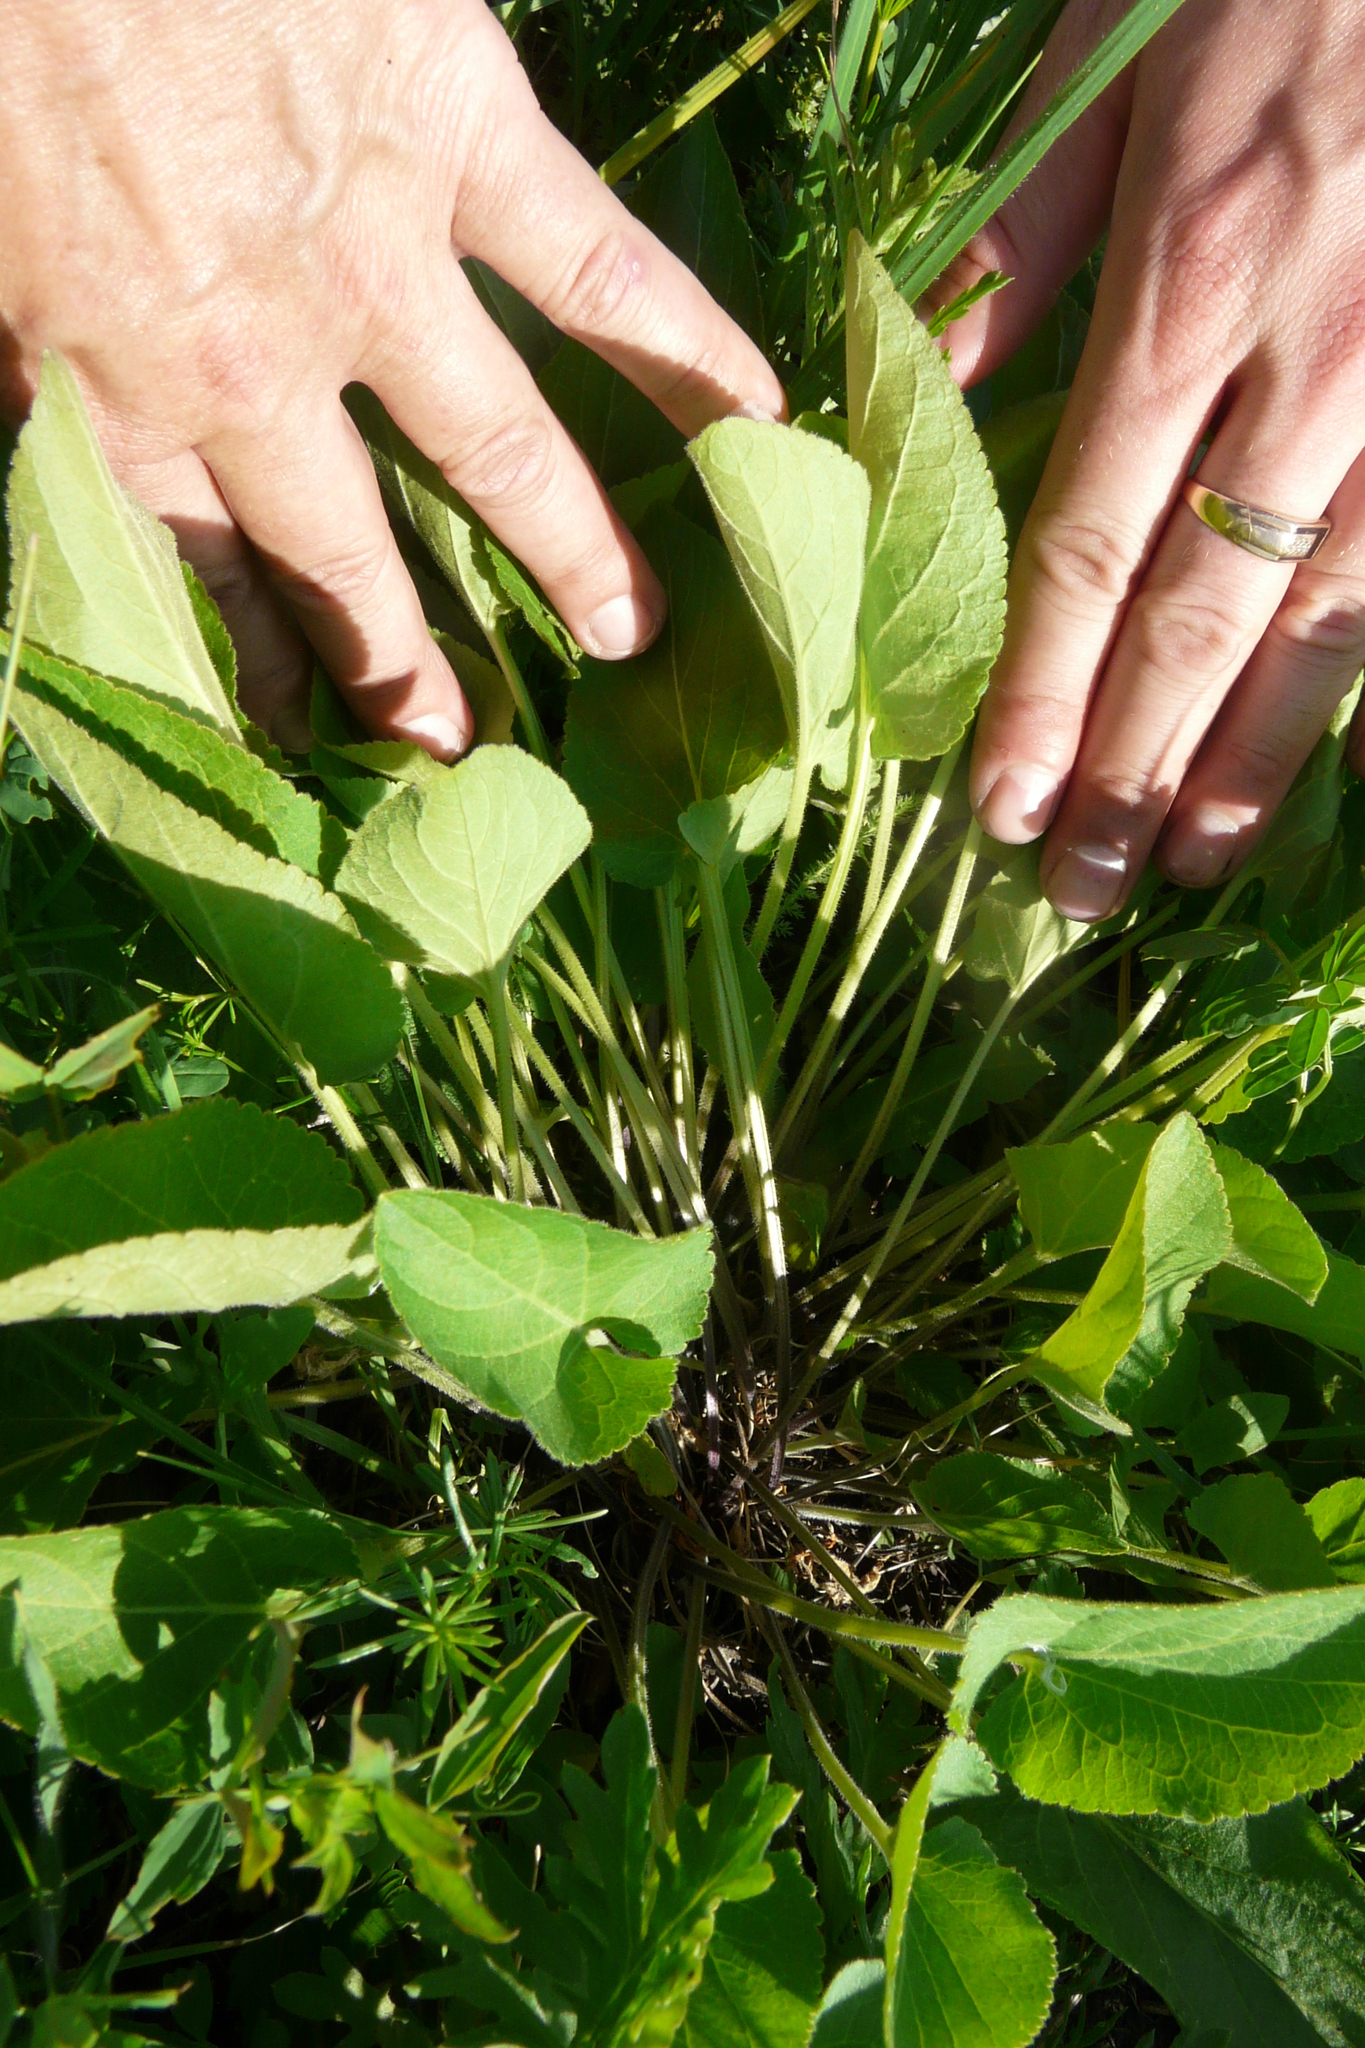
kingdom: Plantae
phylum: Tracheophyta
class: Magnoliopsida
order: Malpighiales
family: Violaceae
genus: Viola
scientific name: Viola ambigua
